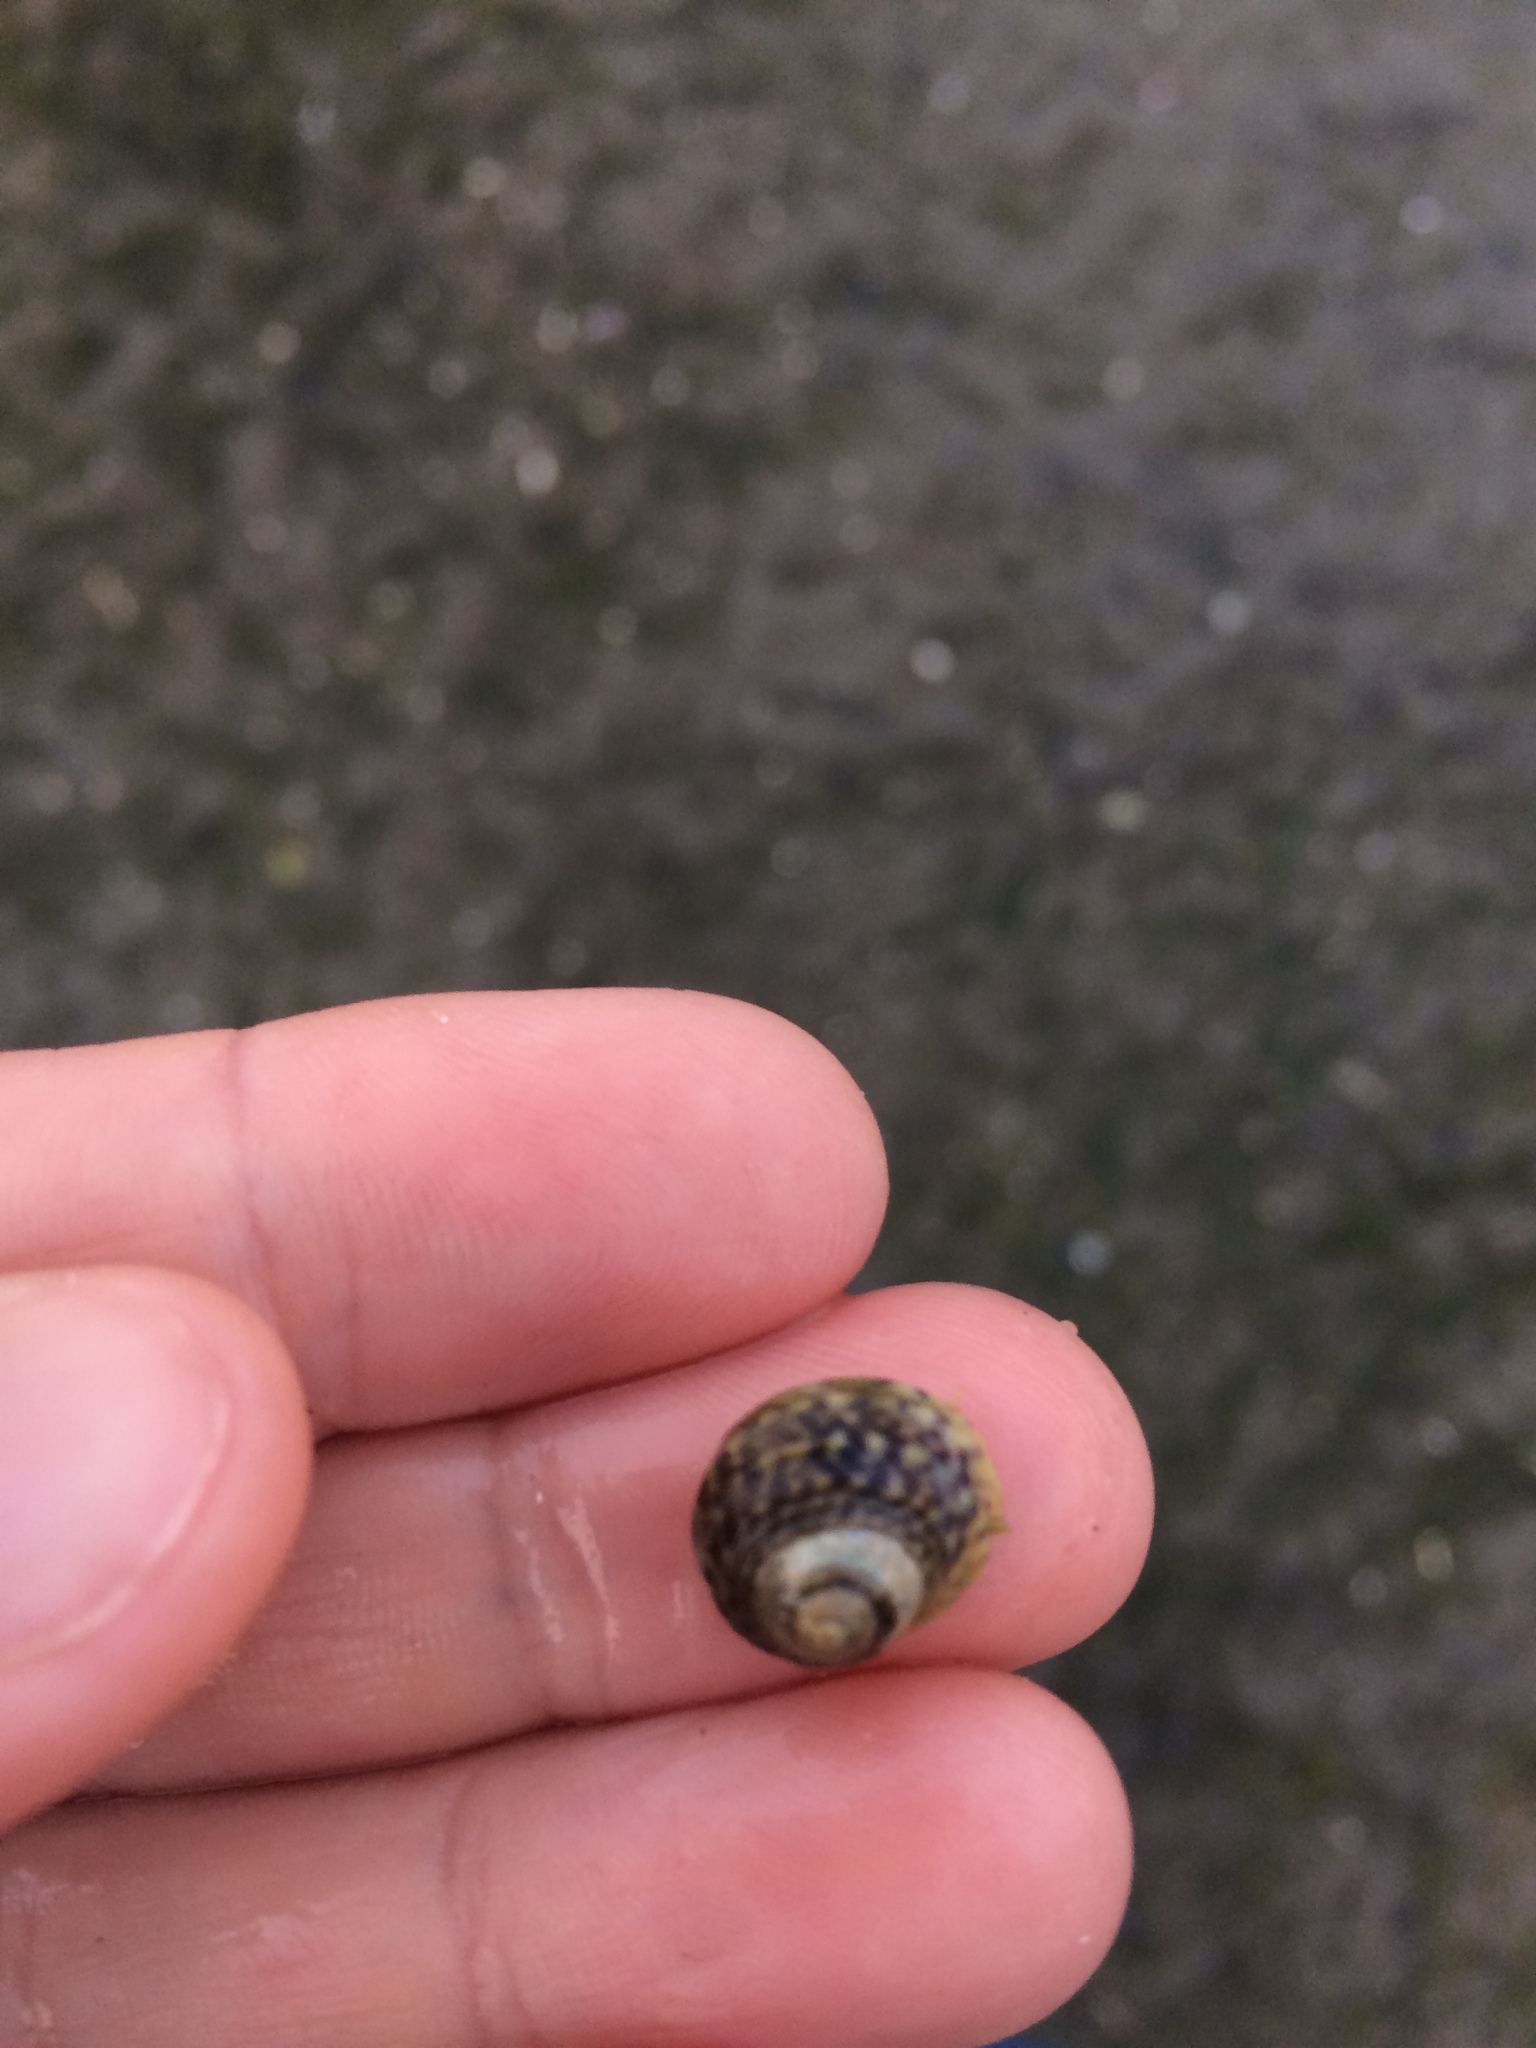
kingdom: Animalia
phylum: Mollusca
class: Gastropoda
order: Trochida
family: Trochidae
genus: Diloma
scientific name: Diloma subrostratum
